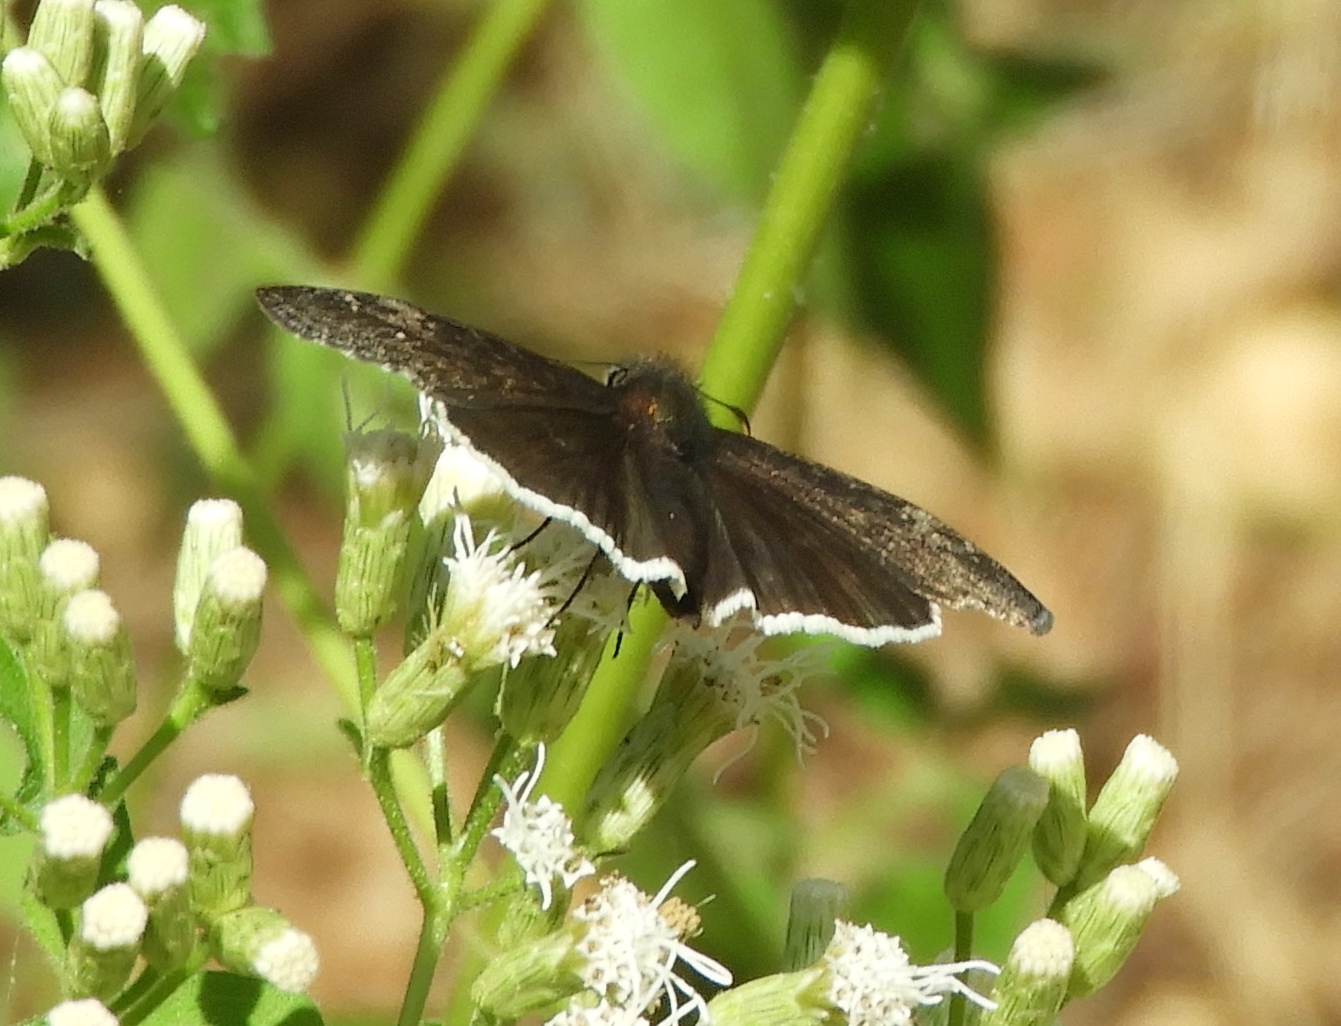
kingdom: Animalia
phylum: Arthropoda
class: Insecta
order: Lepidoptera
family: Hesperiidae
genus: Erynnis
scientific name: Erynnis funeralis
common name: Funereal duskywing
